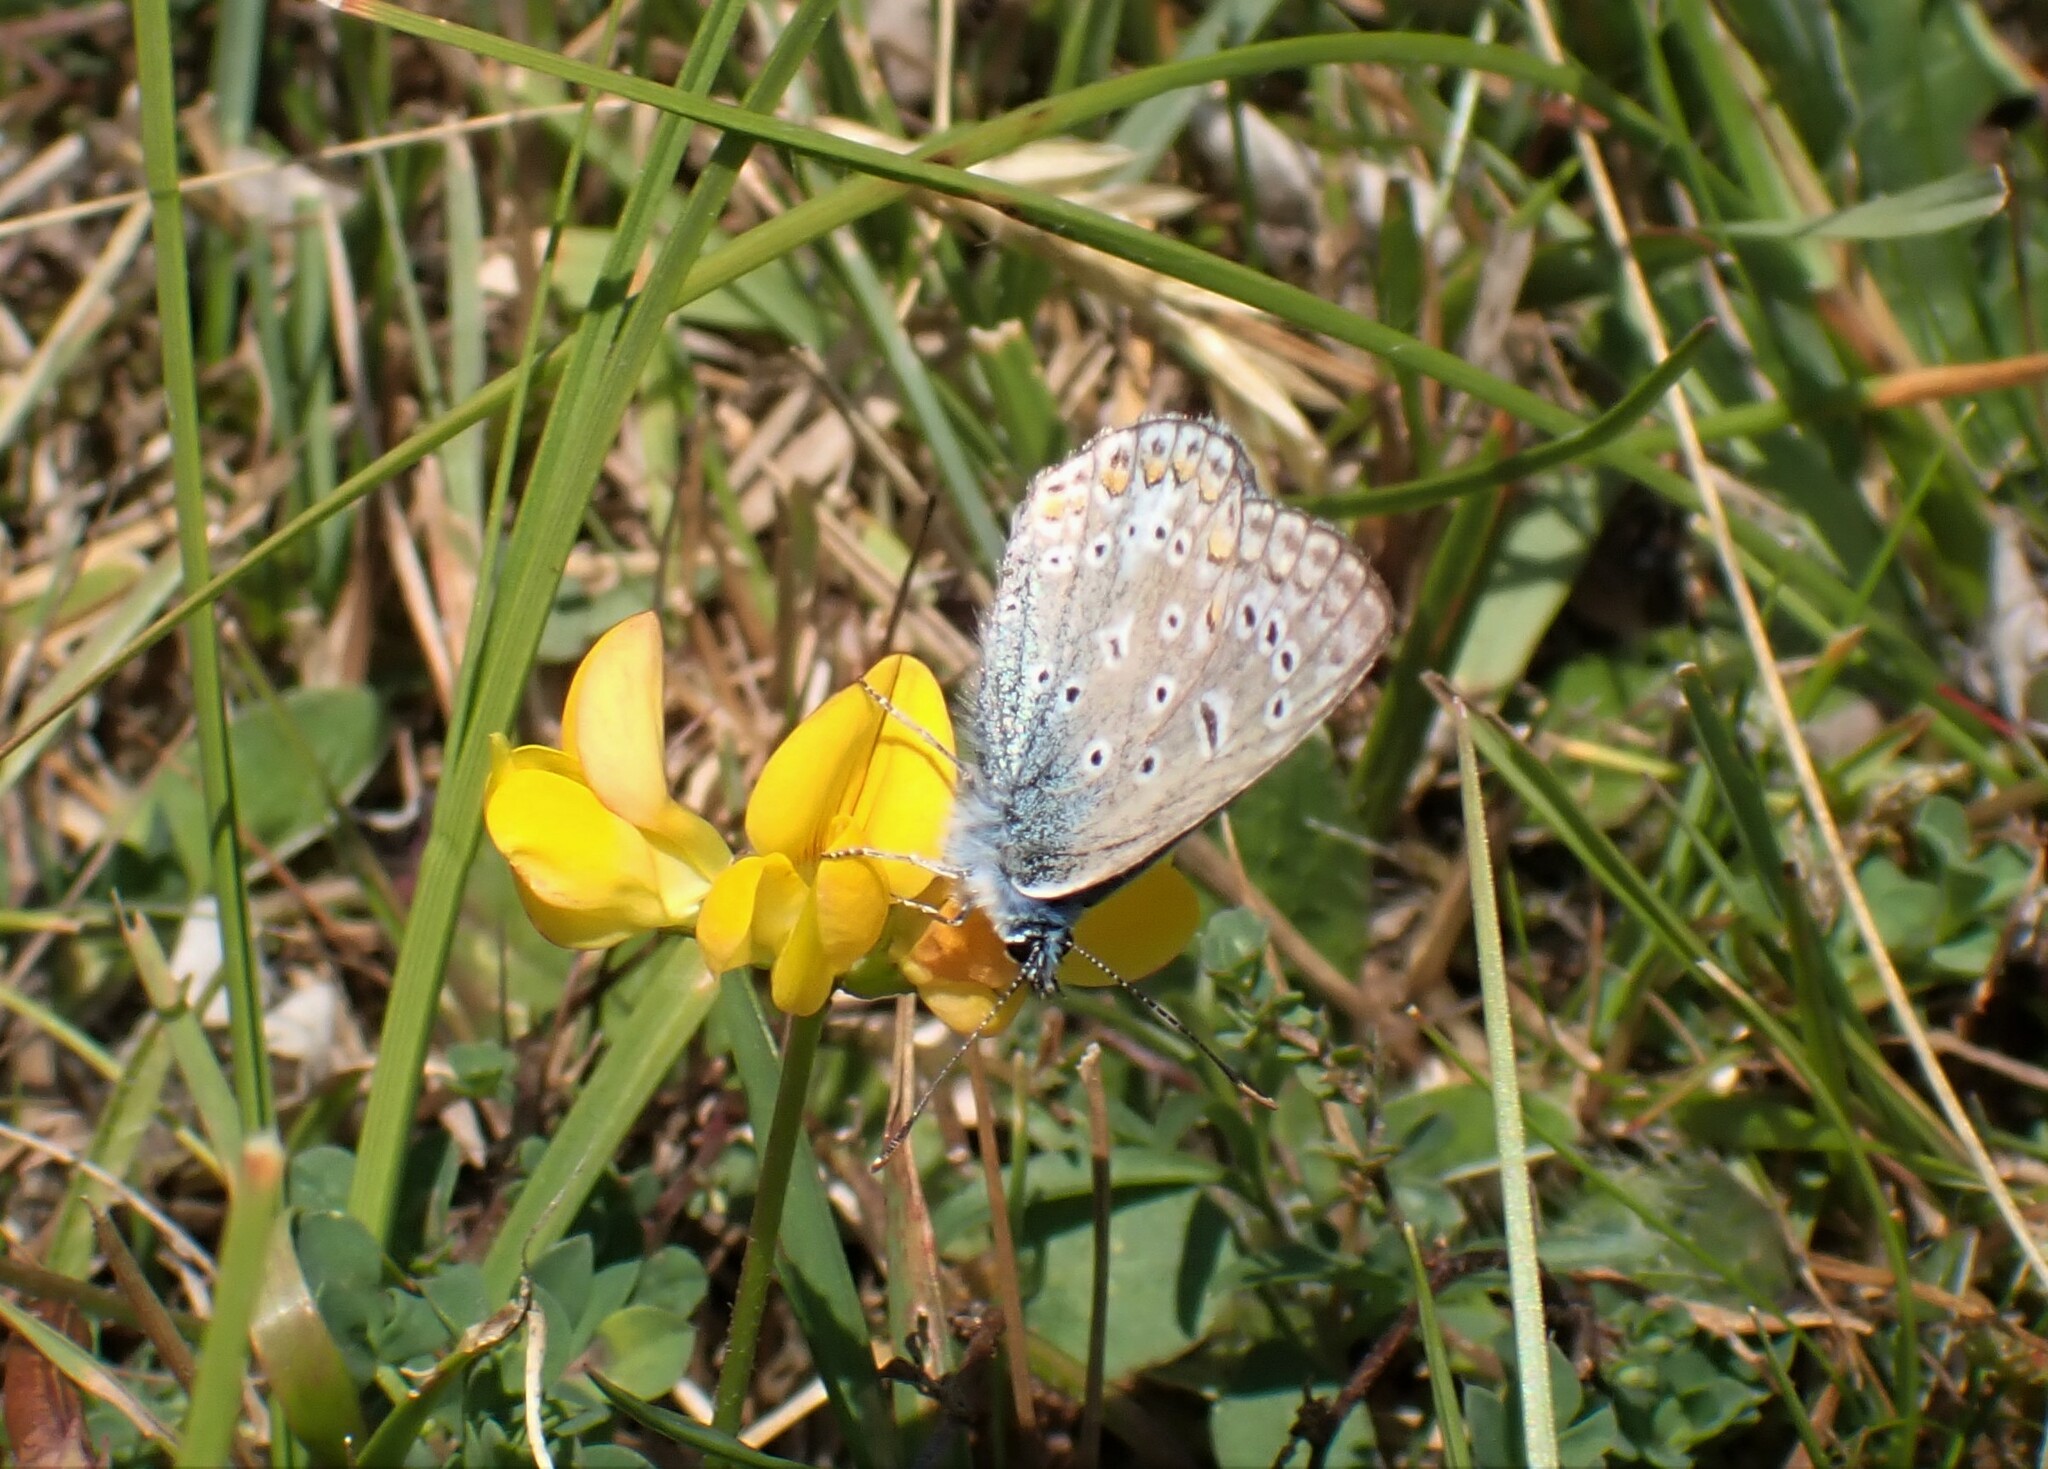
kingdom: Animalia
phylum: Arthropoda
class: Insecta
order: Lepidoptera
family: Lycaenidae
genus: Polyommatus
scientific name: Polyommatus icarus
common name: Common blue
